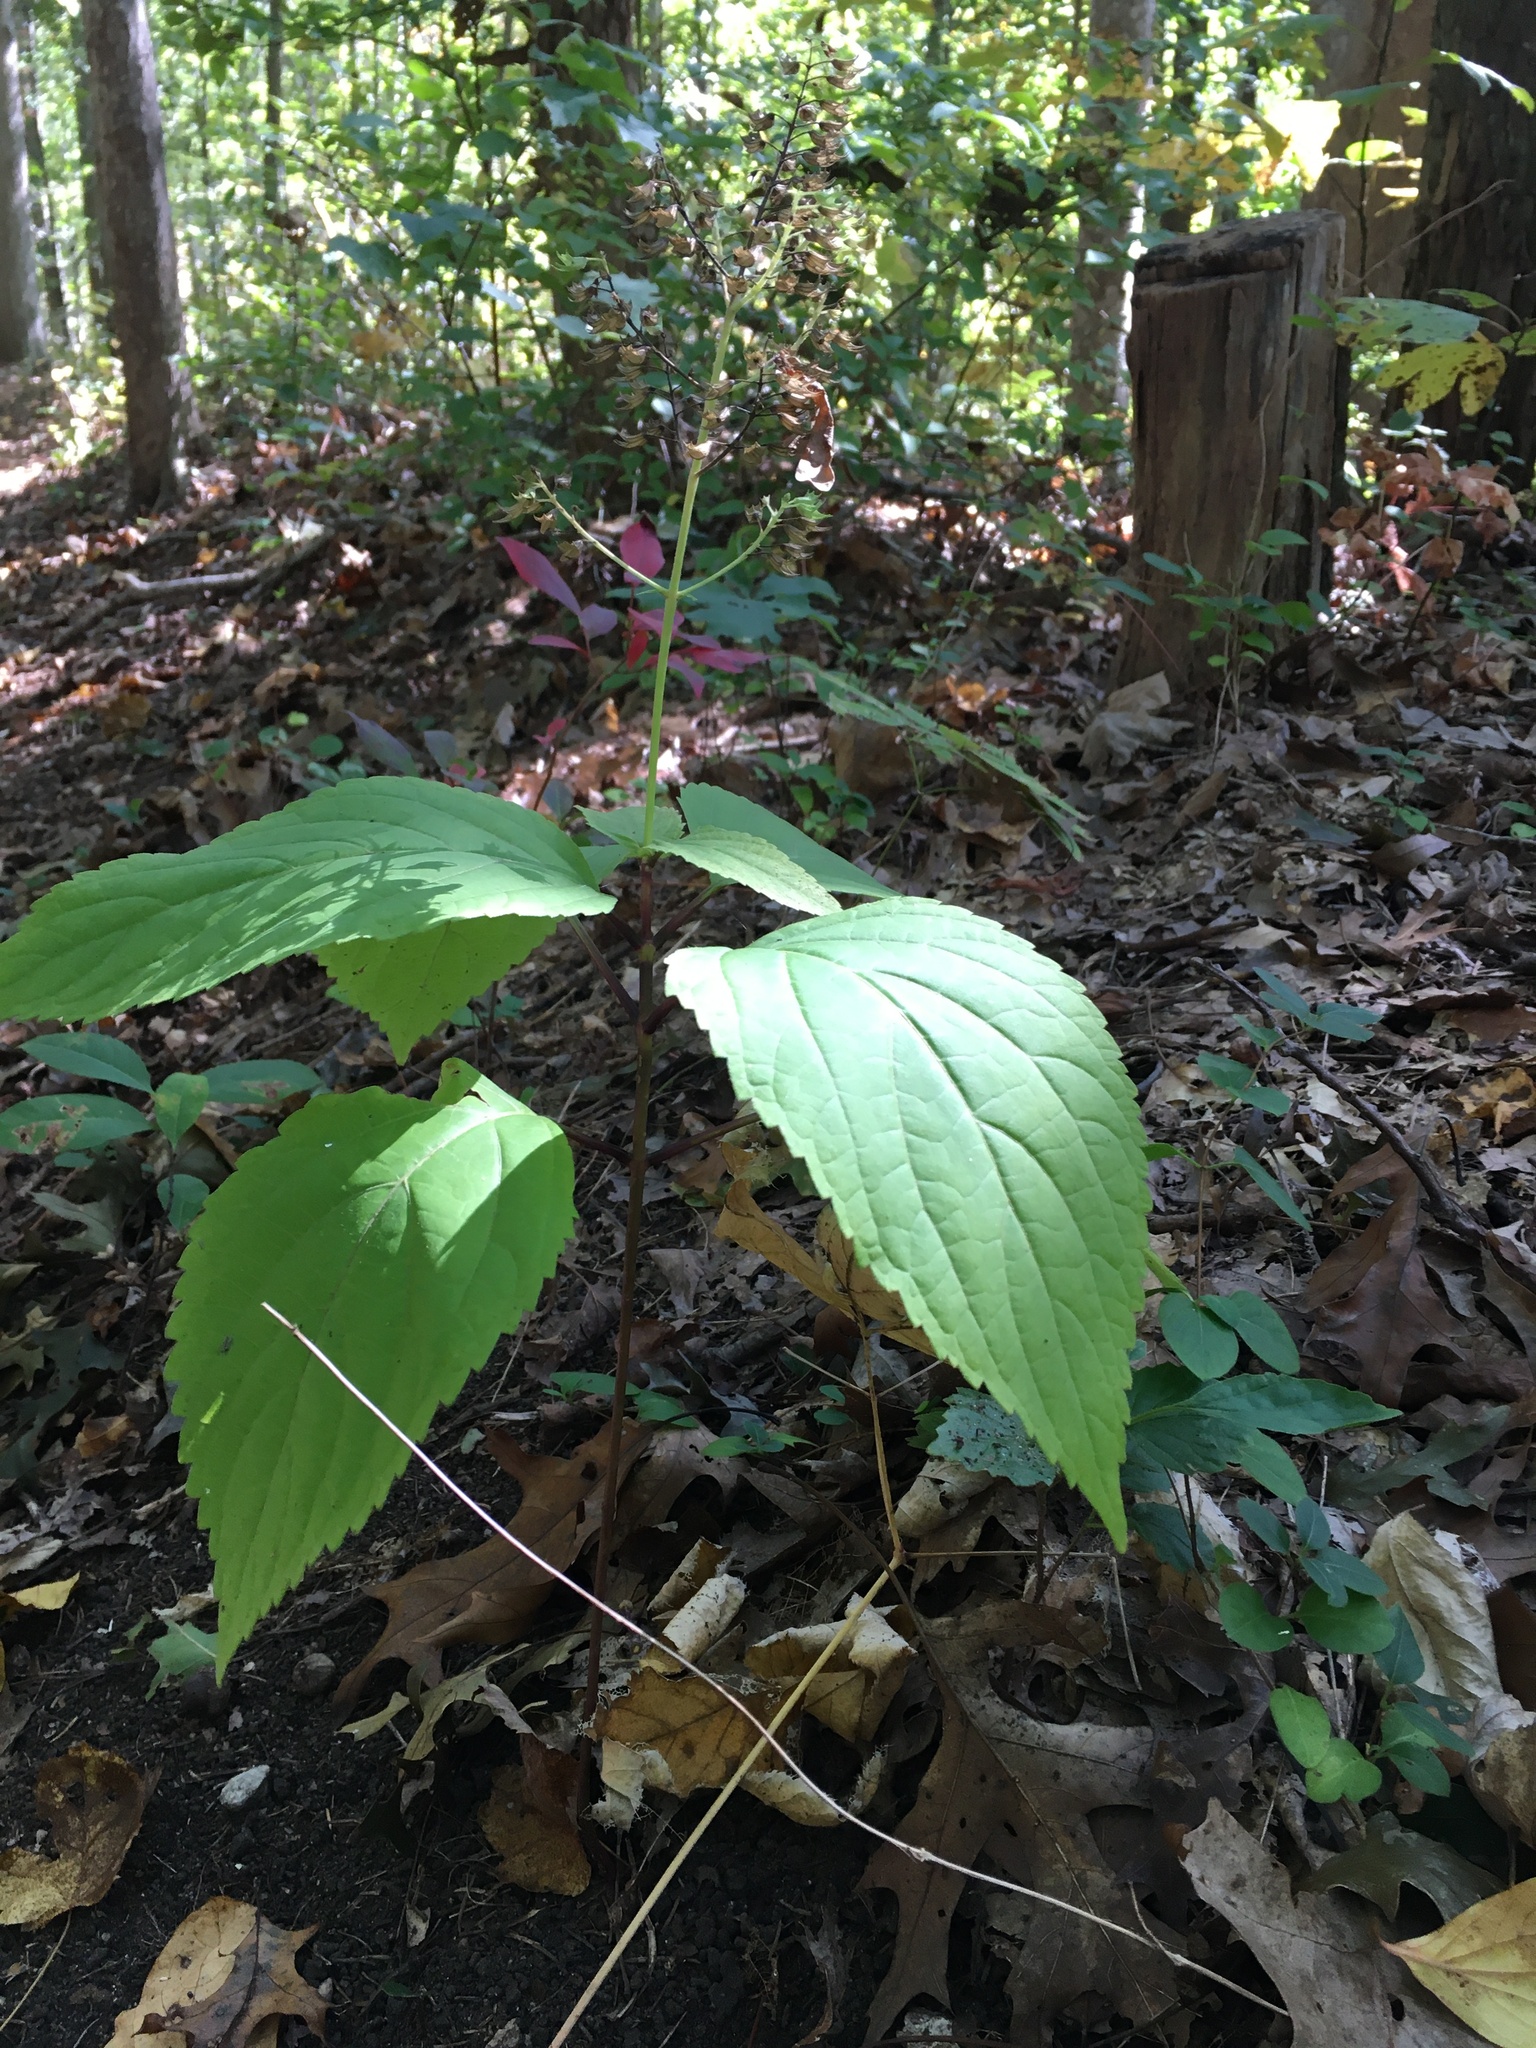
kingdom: Plantae
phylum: Tracheophyta
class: Magnoliopsida
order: Lamiales
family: Lamiaceae
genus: Collinsonia
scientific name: Collinsonia canadensis
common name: Northern horsebalm
